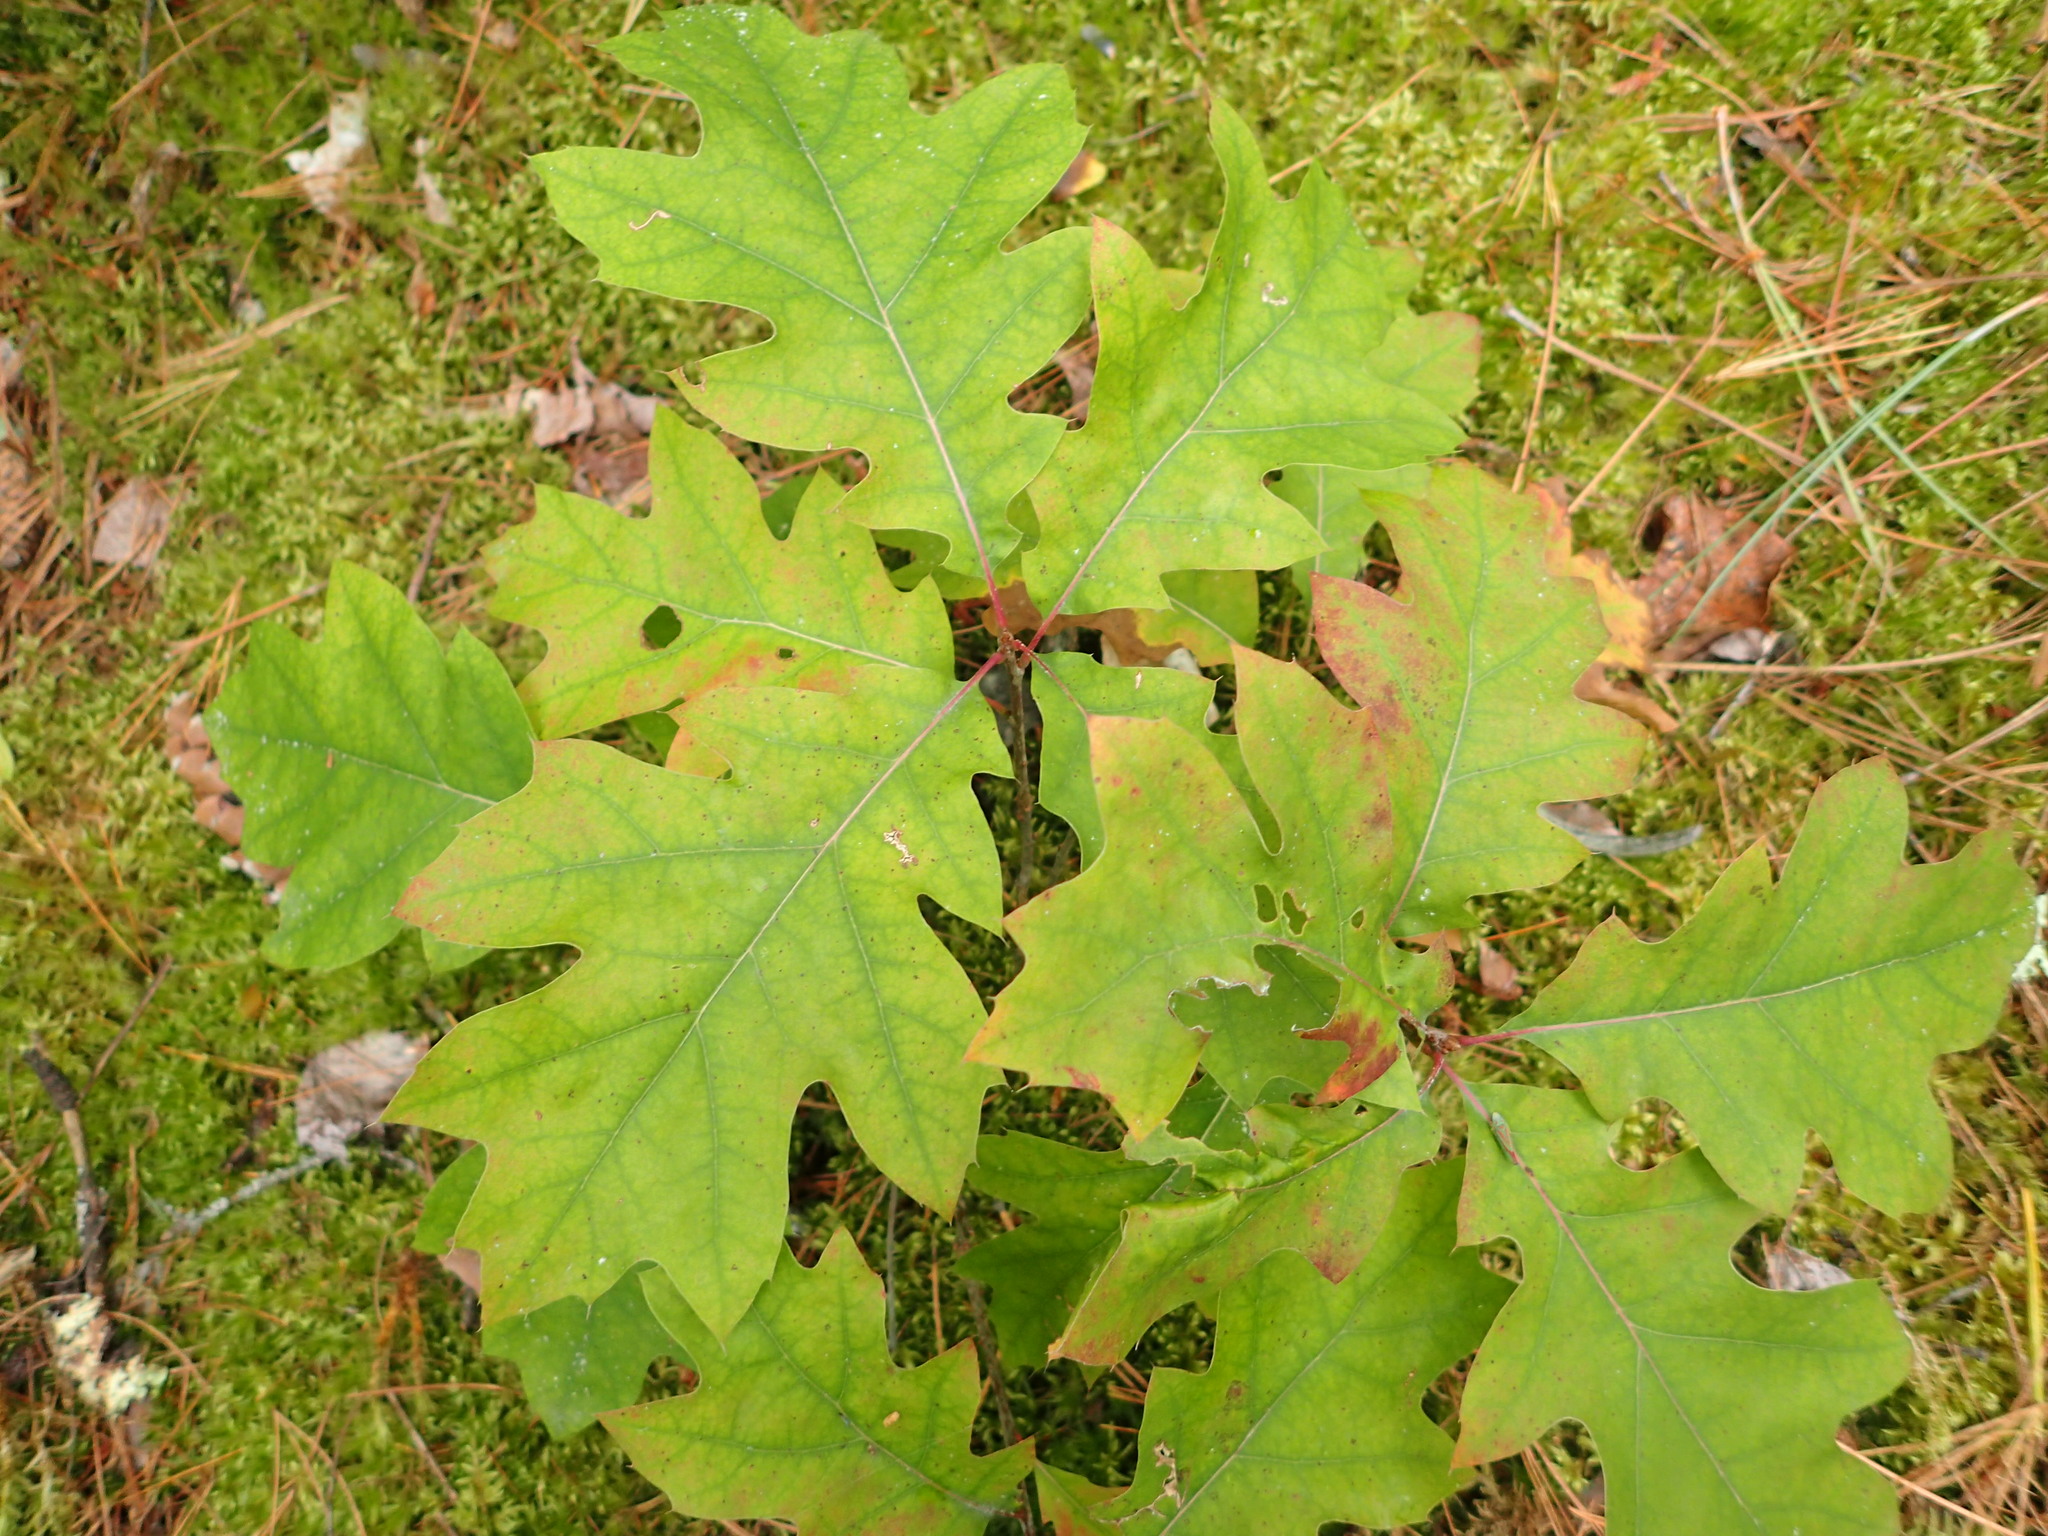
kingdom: Plantae
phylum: Tracheophyta
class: Magnoliopsida
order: Fagales
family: Fagaceae
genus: Quercus
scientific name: Quercus rubra
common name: Red oak
